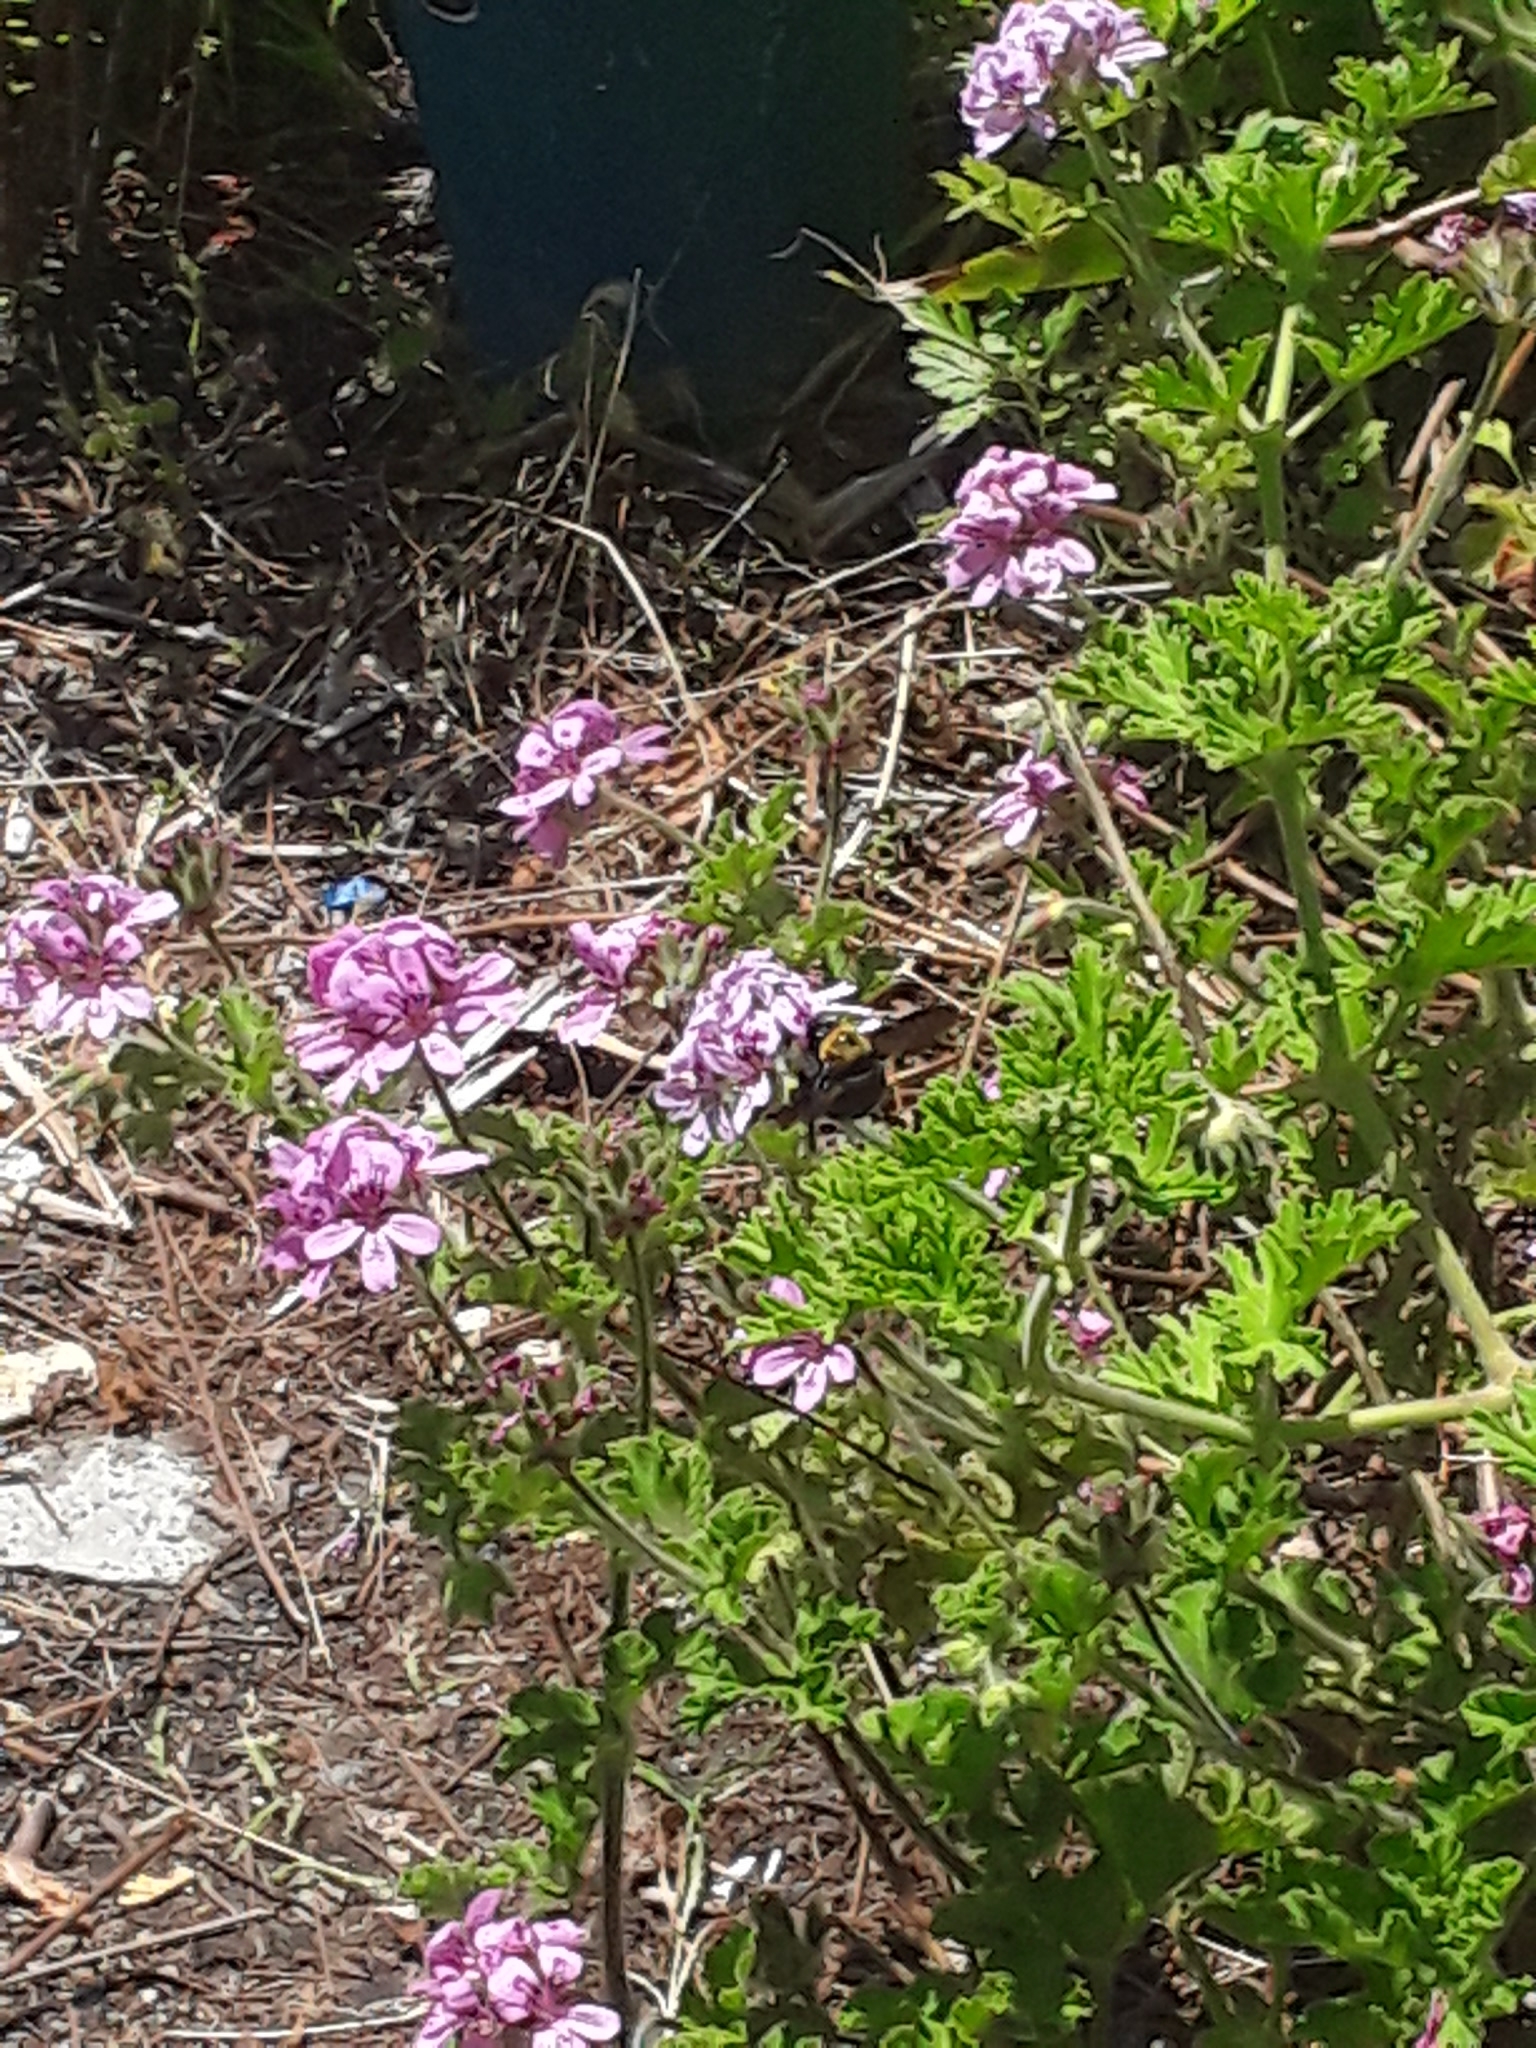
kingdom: Animalia
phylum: Arthropoda
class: Insecta
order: Hymenoptera
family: Apidae
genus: Xylocopa
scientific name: Xylocopa appendiculata
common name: Japanese carpenter bee
